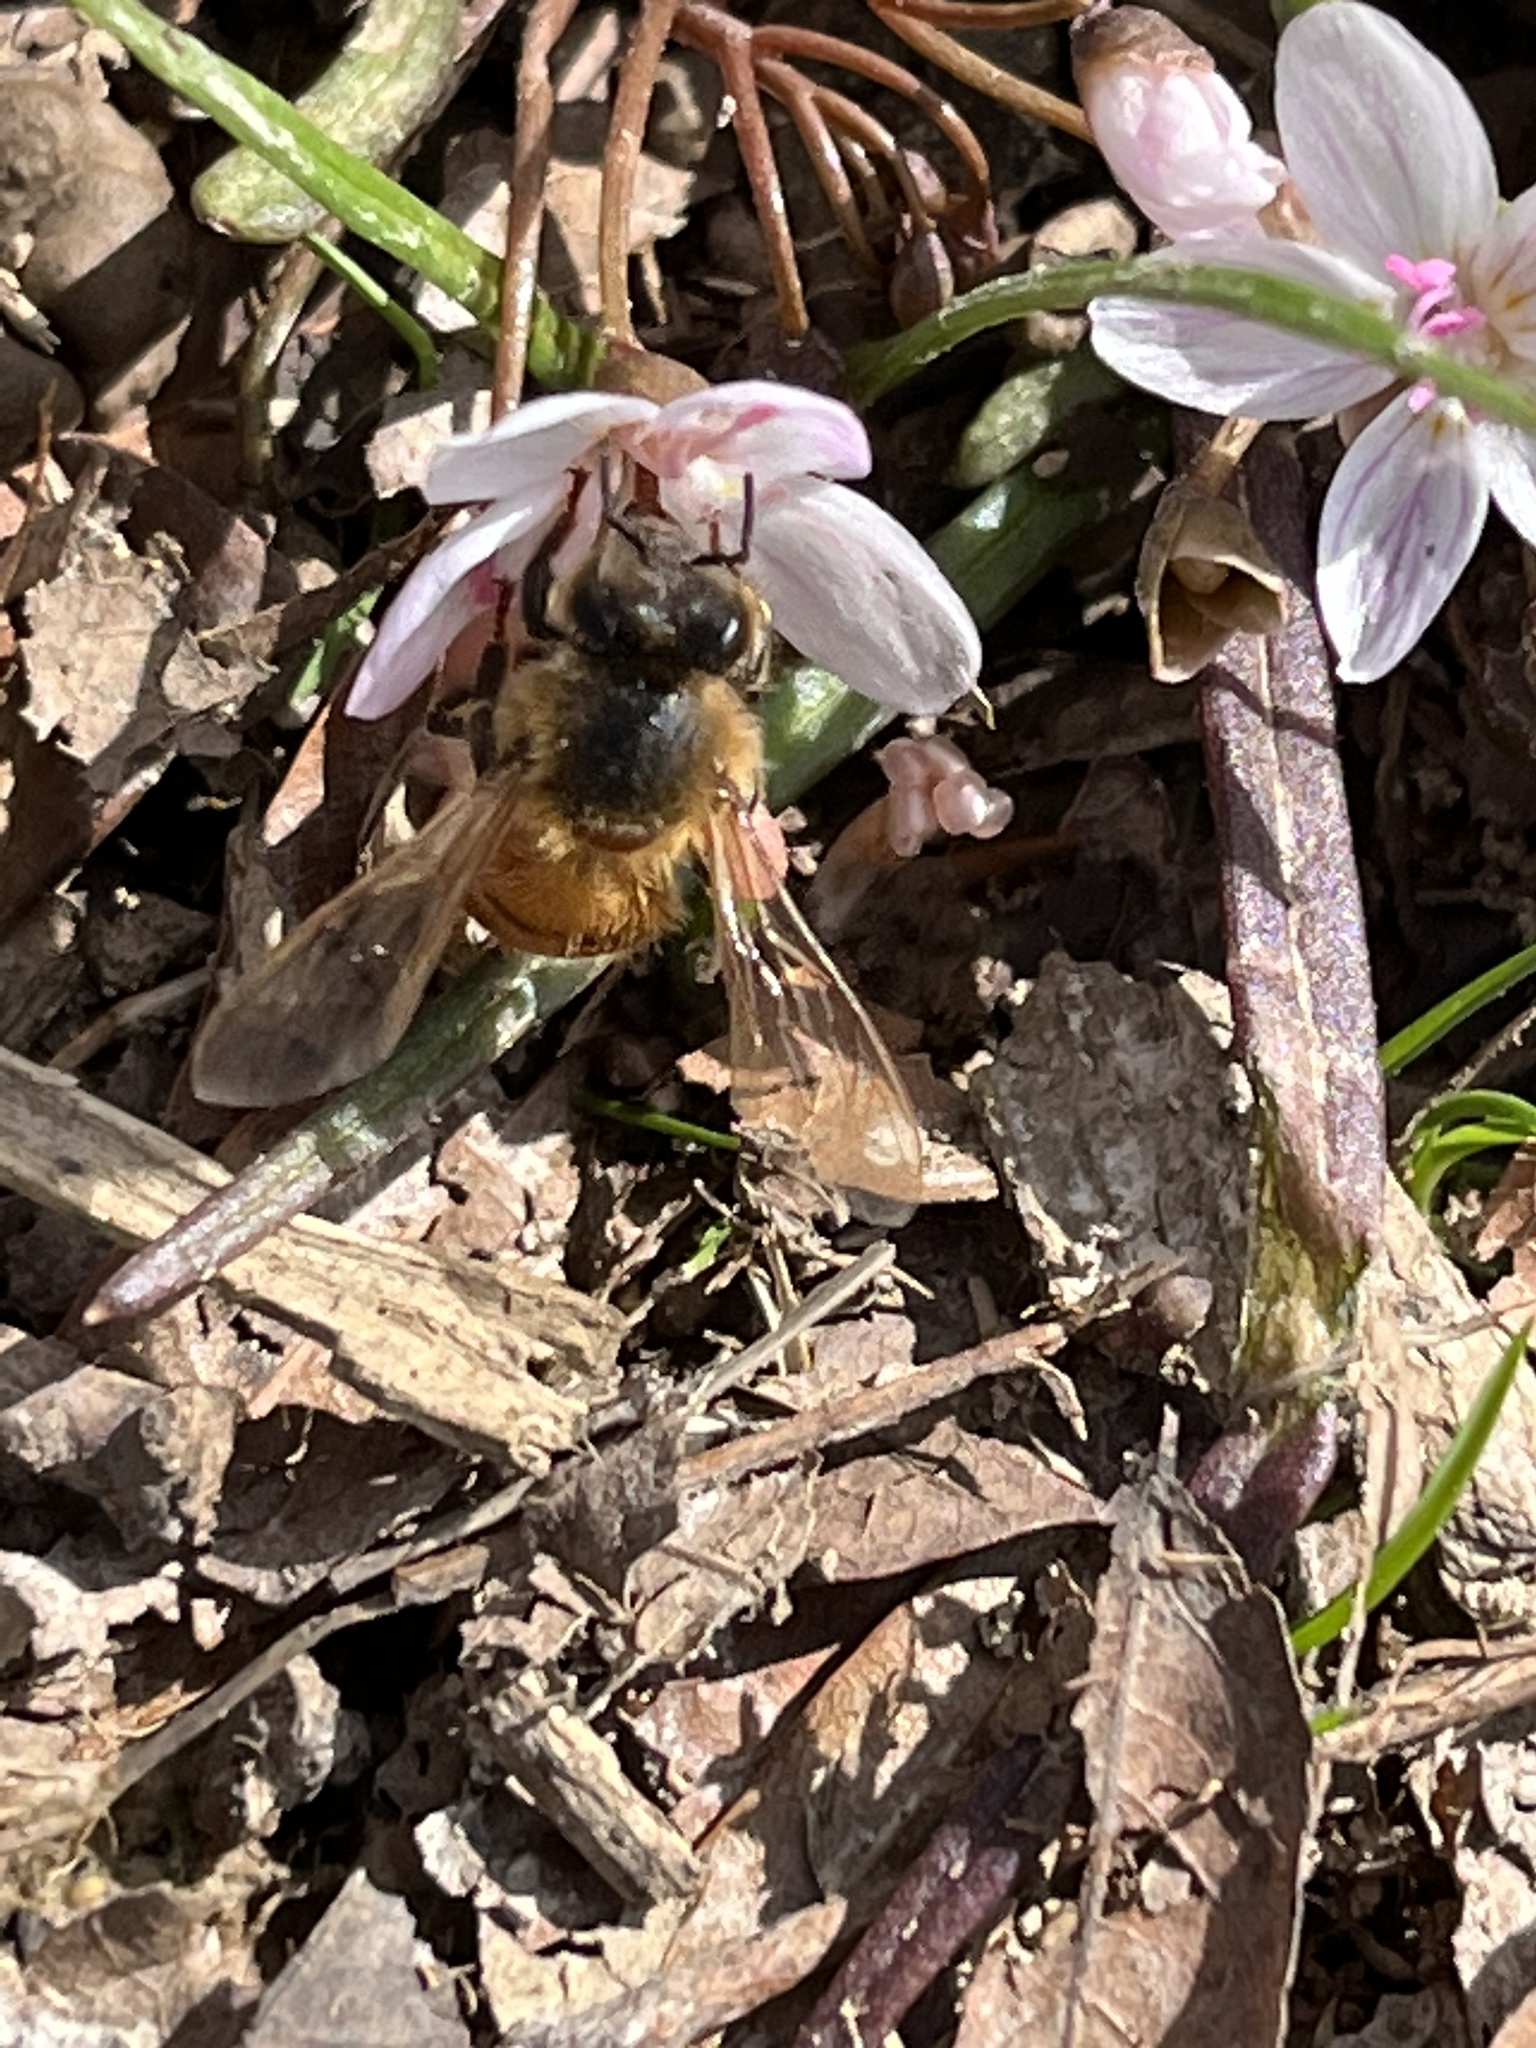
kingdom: Animalia
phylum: Arthropoda
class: Insecta
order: Hymenoptera
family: Apidae
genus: Apis
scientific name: Apis mellifera
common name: Honey bee
